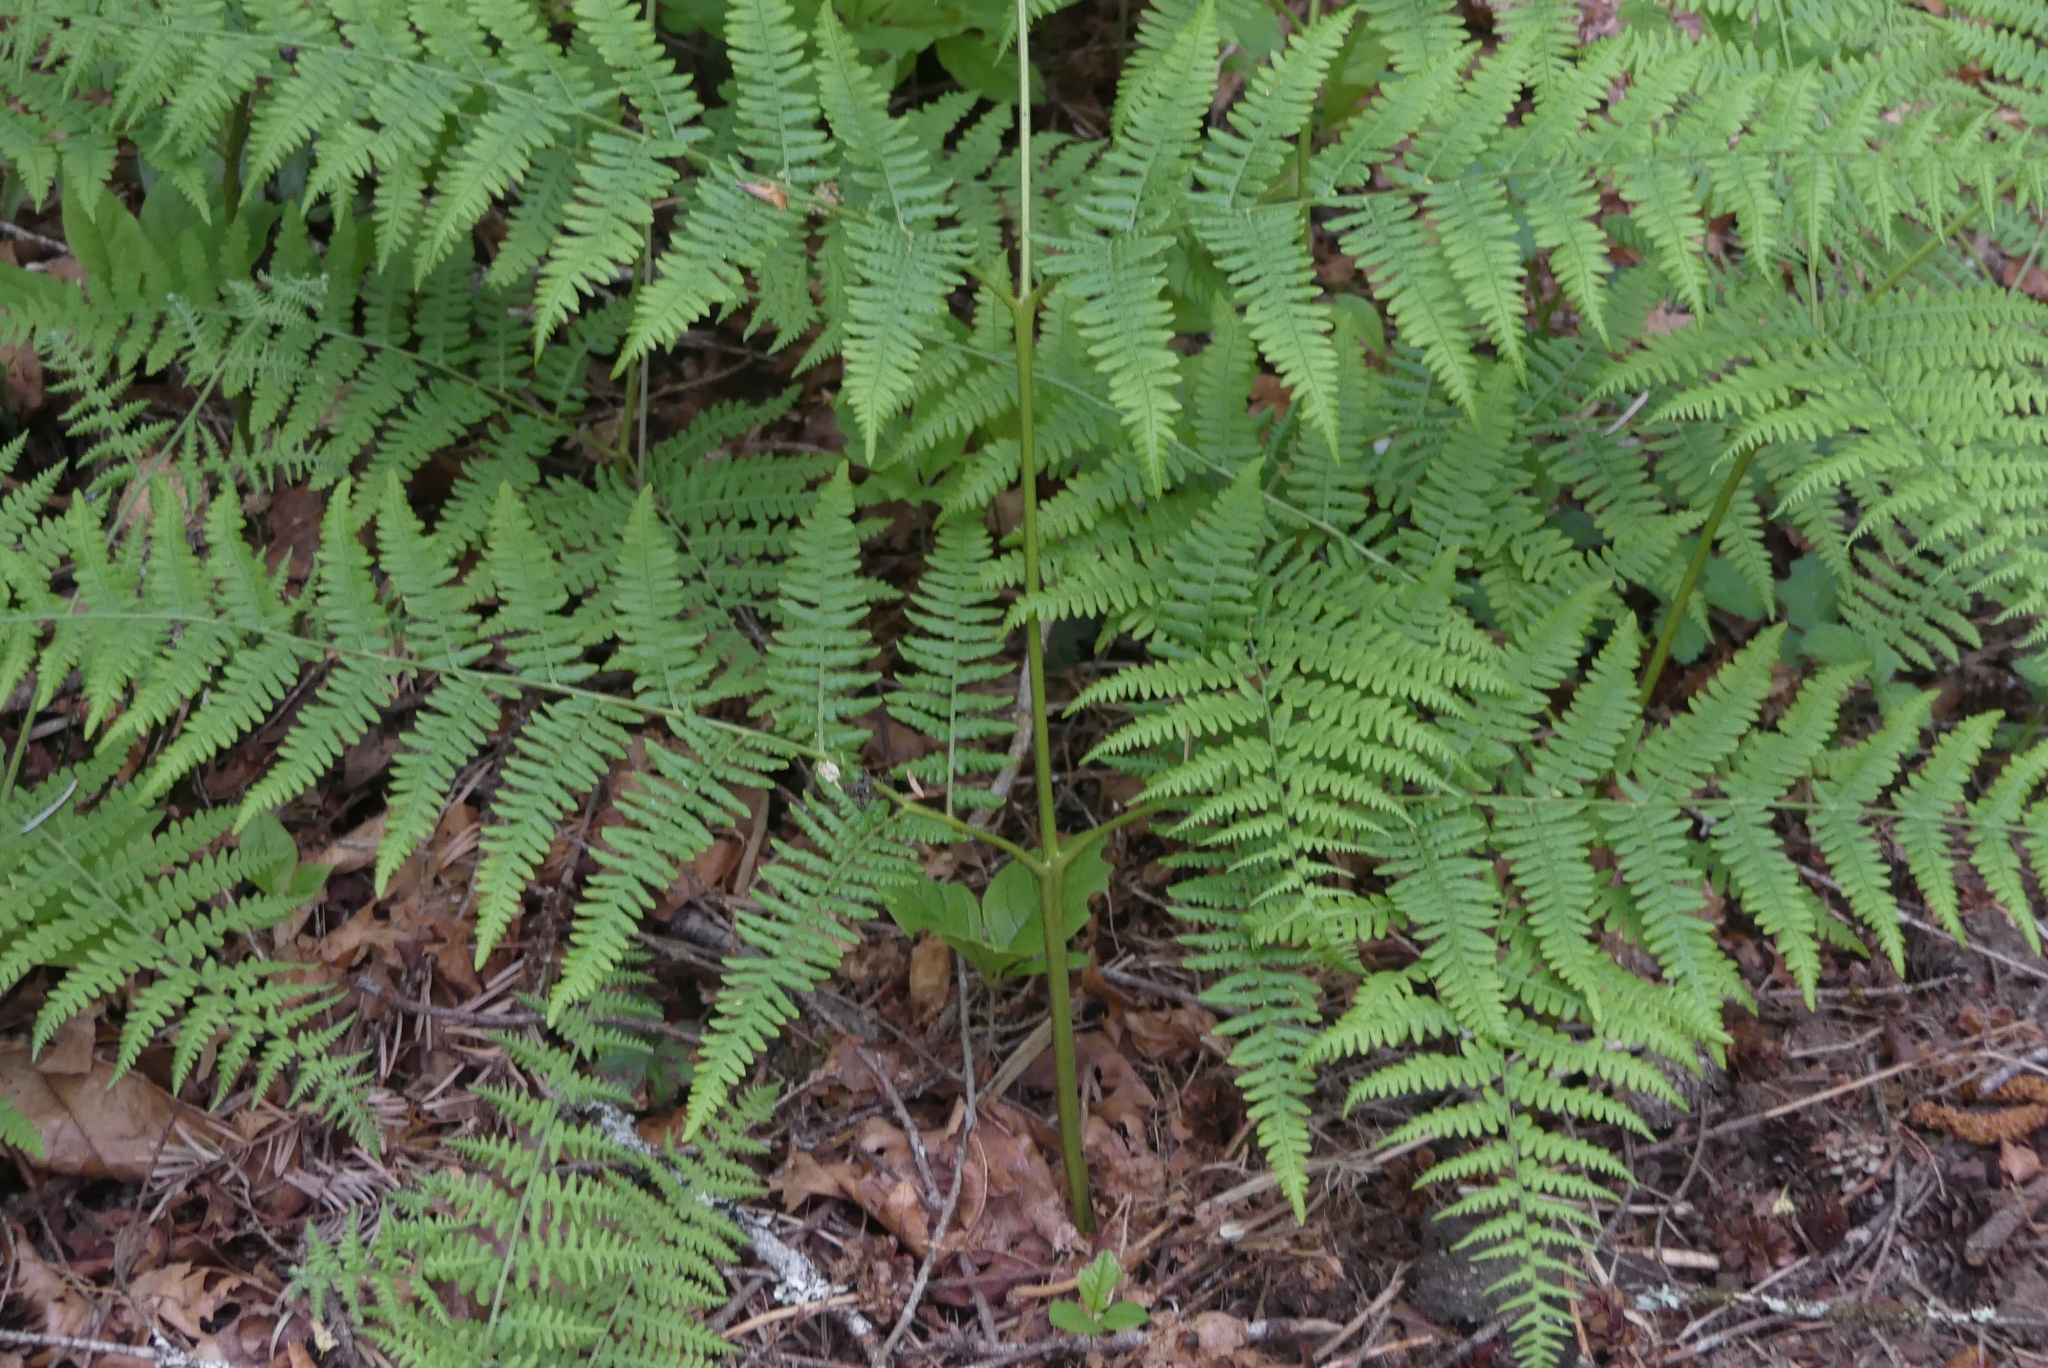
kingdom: Plantae
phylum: Tracheophyta
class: Polypodiopsida
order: Polypodiales
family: Dennstaedtiaceae
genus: Pteridium
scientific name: Pteridium aquilinum
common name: Bracken
